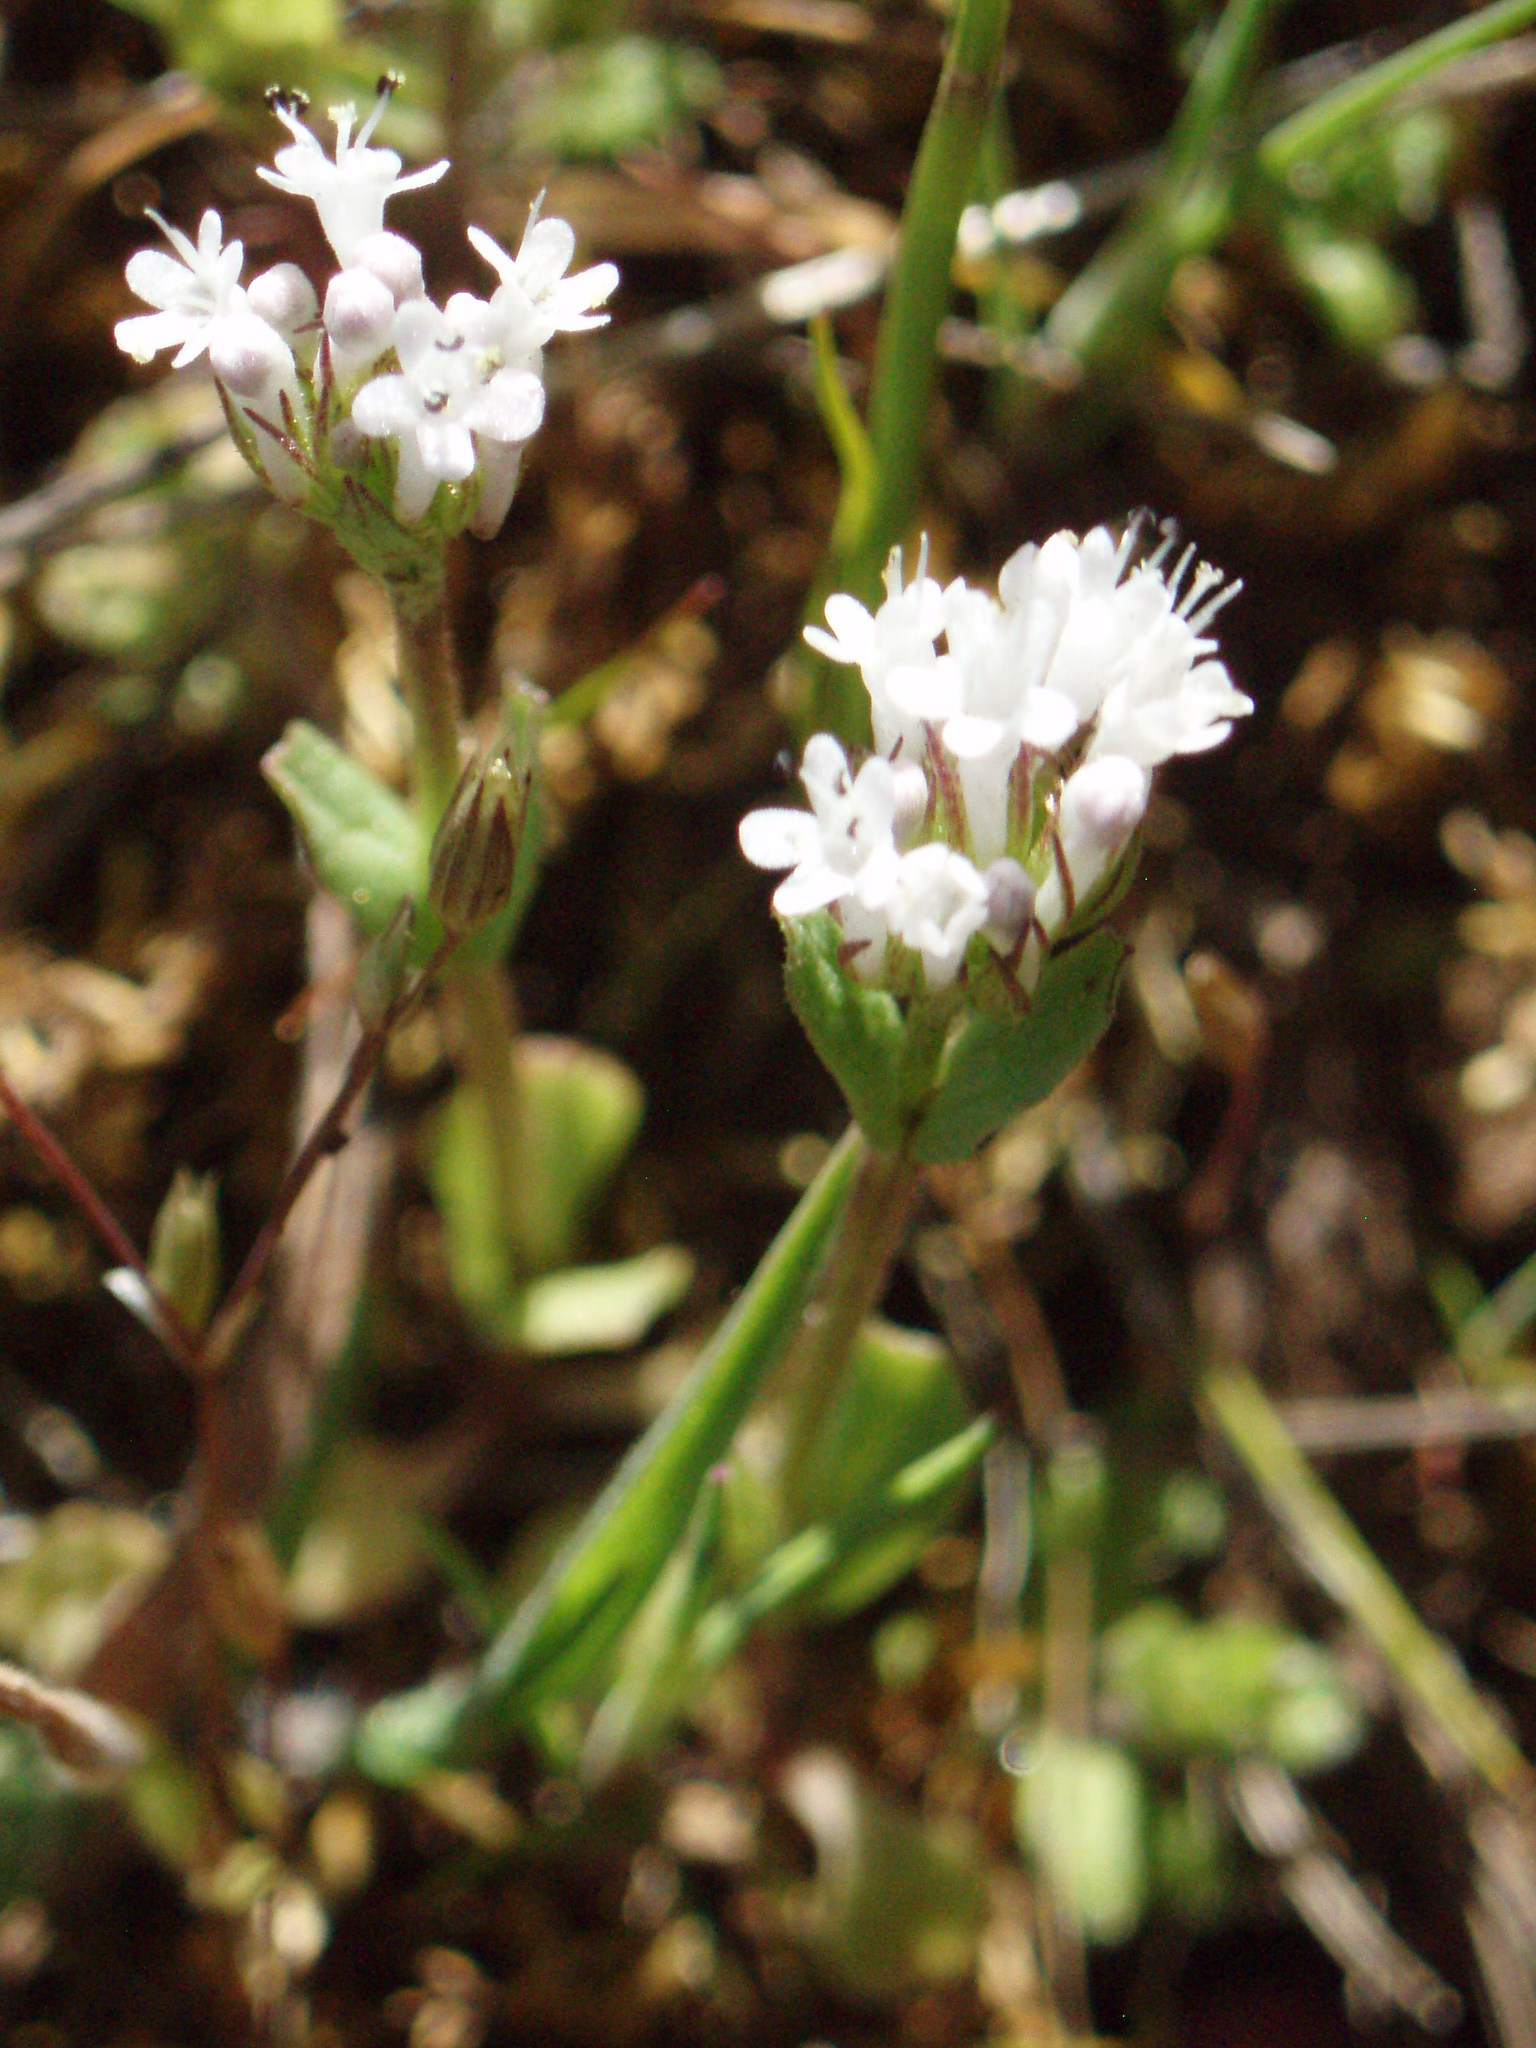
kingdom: Plantae
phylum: Tracheophyta
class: Magnoliopsida
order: Dipsacales
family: Caprifoliaceae
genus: Plectritis
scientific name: Plectritis macroptera
